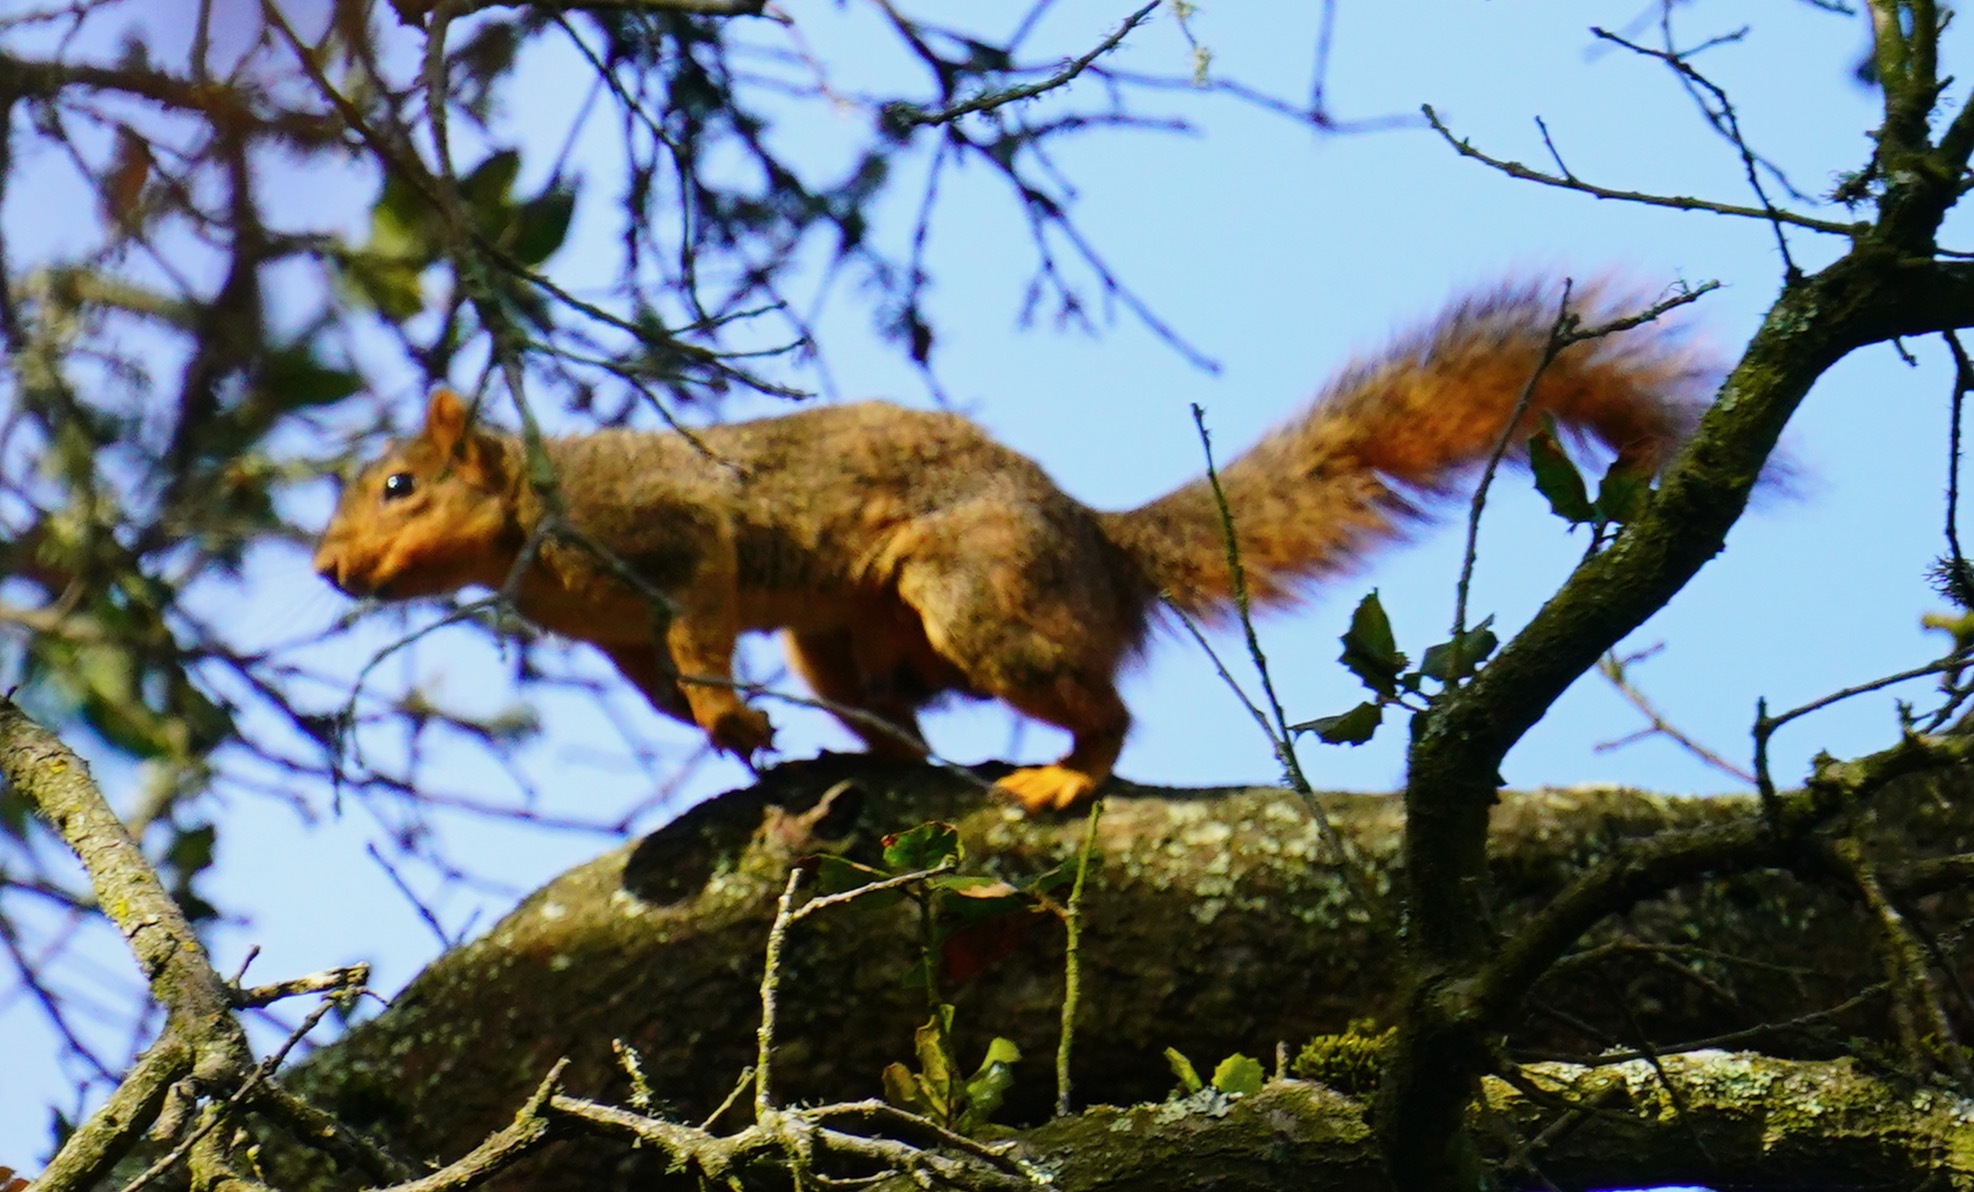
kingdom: Animalia
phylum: Chordata
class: Mammalia
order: Rodentia
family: Sciuridae
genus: Sciurus
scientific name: Sciurus niger
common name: Fox squirrel
